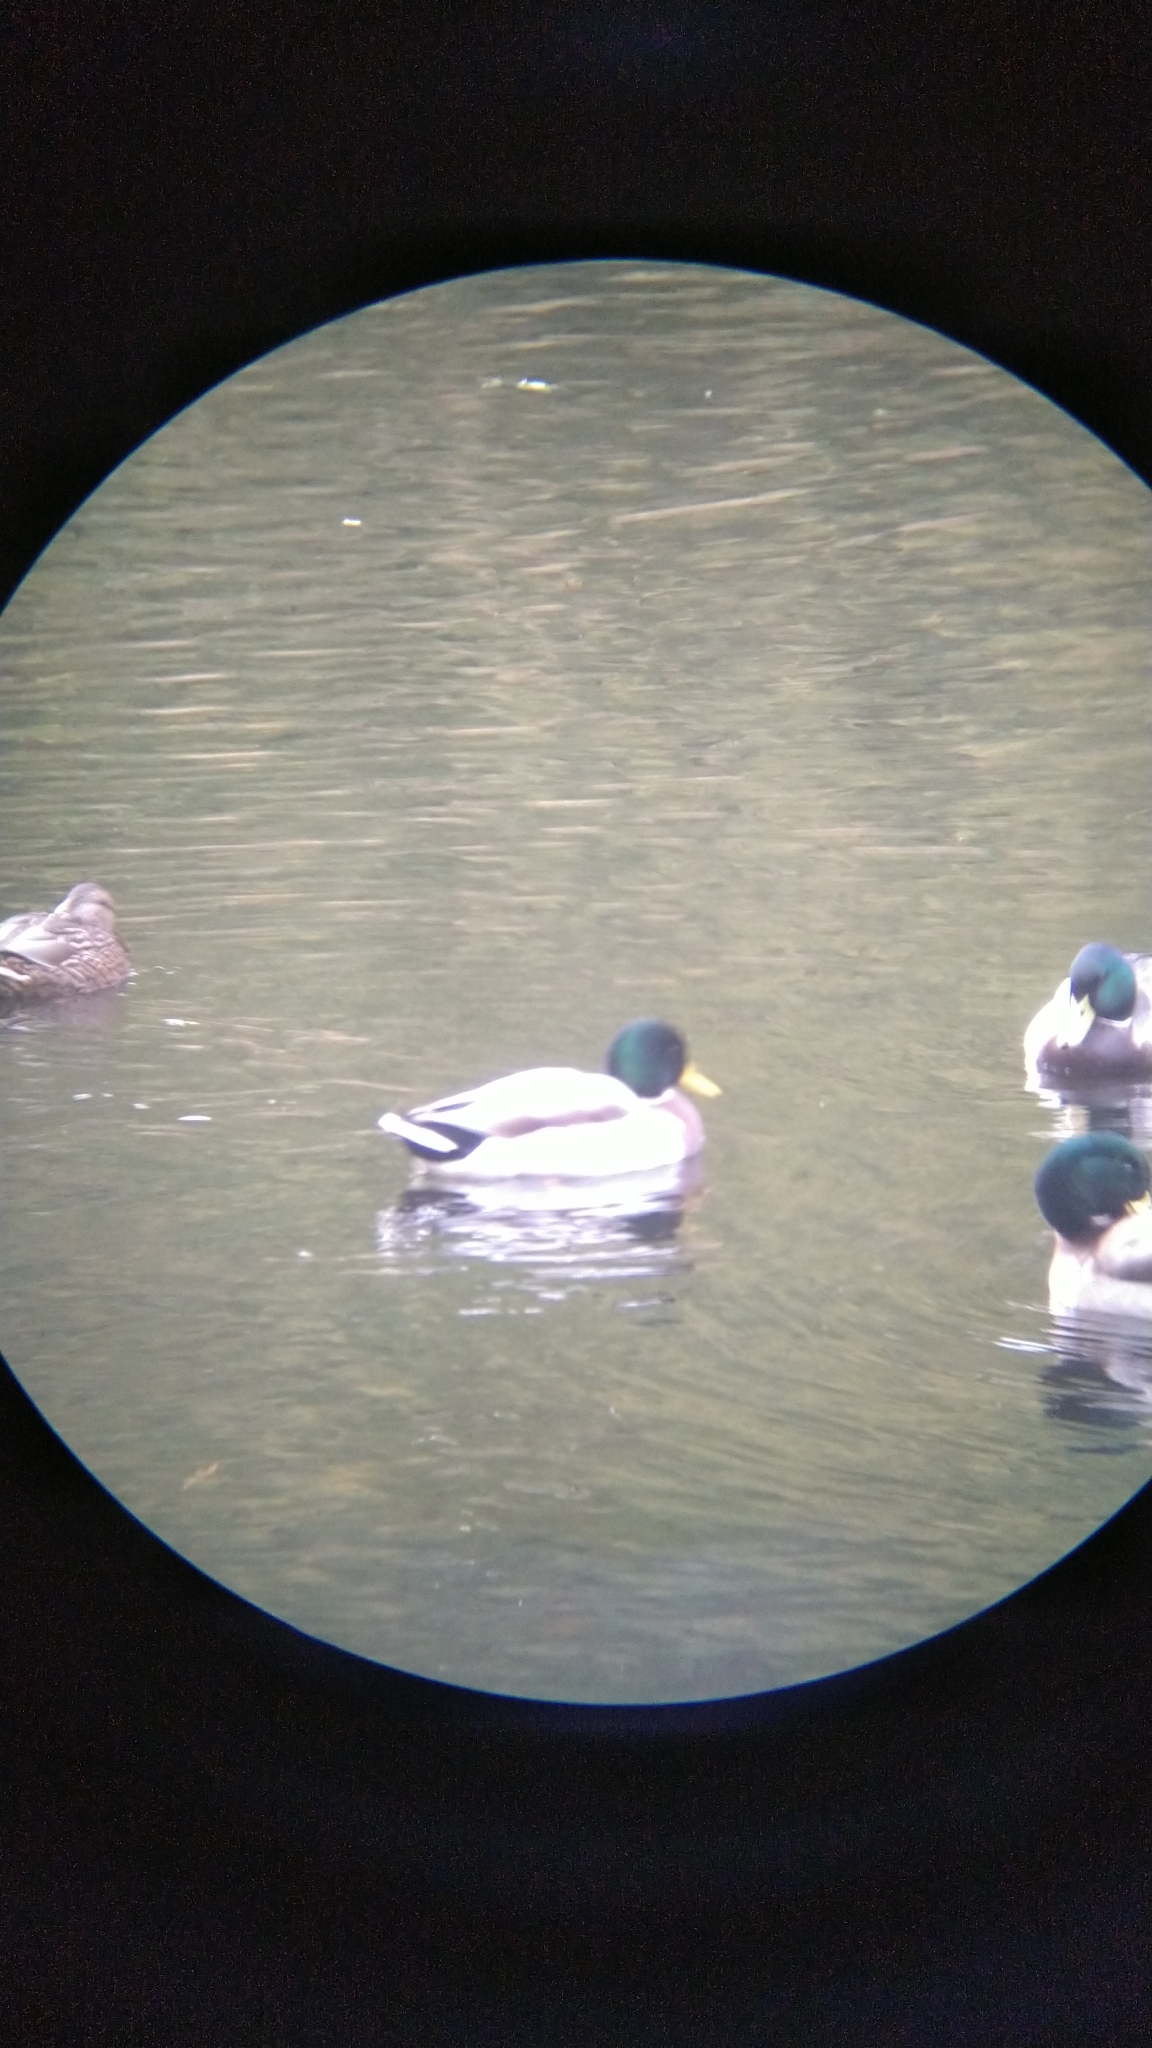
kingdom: Animalia
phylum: Chordata
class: Aves
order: Anseriformes
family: Anatidae
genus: Anas
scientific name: Anas platyrhynchos
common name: Mallard
